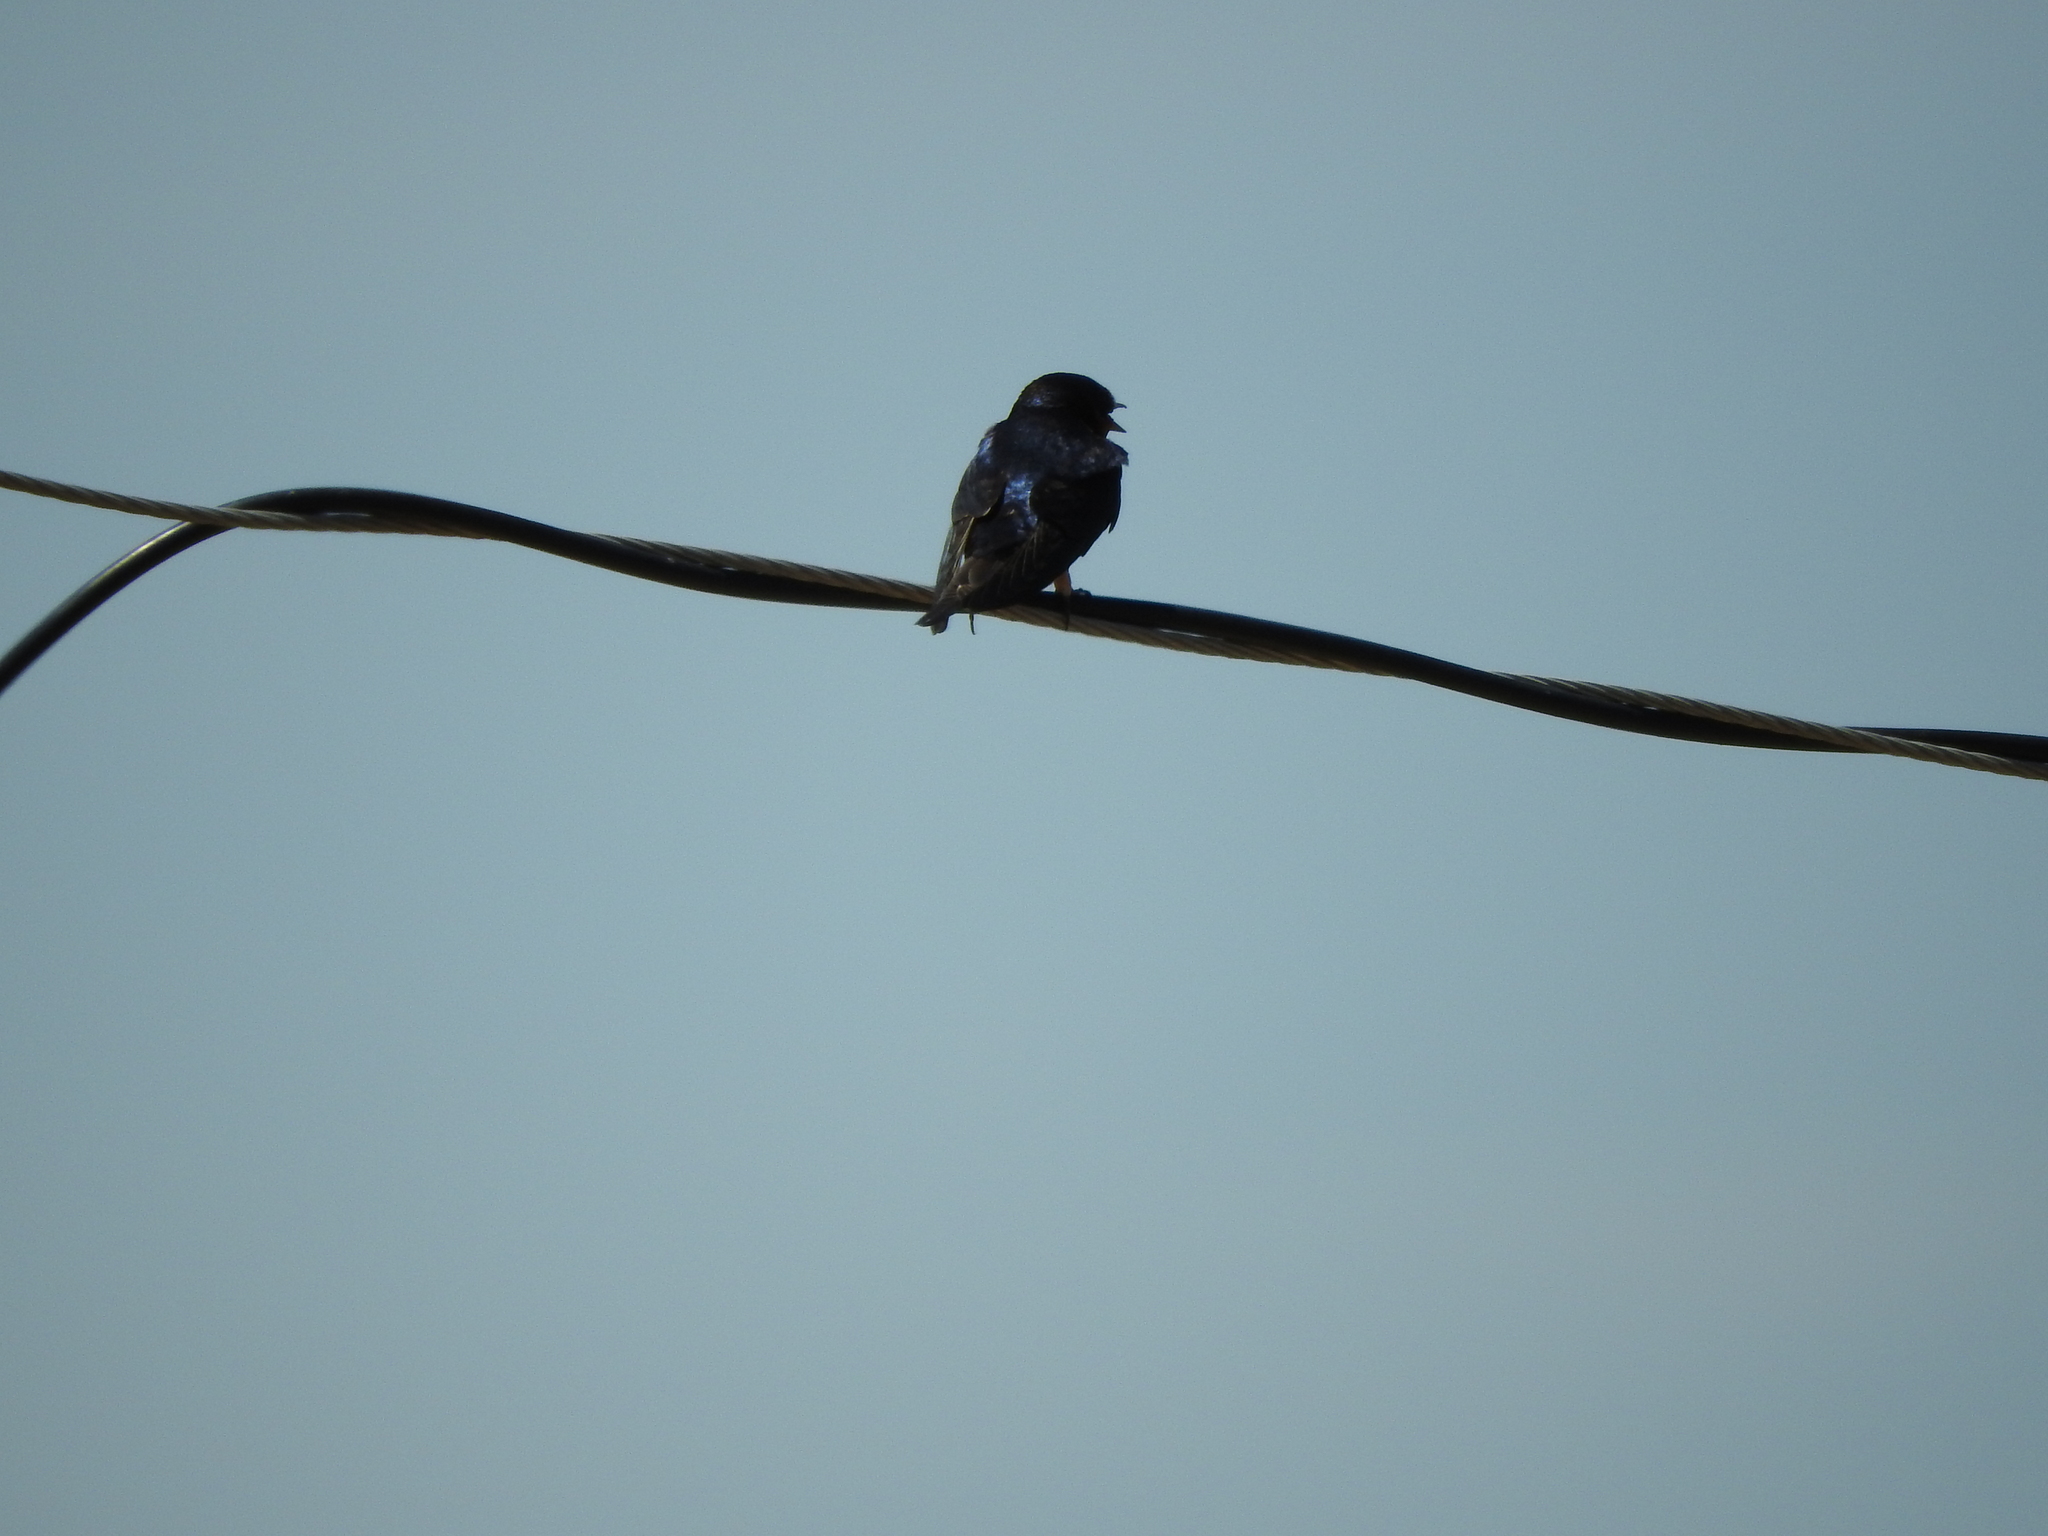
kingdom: Animalia
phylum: Chordata
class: Aves
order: Passeriformes
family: Hirundinidae
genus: Hirundo
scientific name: Hirundo rustica
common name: Barn swallow
